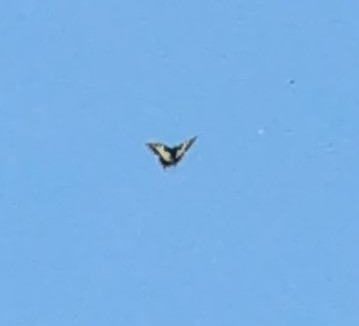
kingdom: Animalia
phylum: Arthropoda
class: Insecta
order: Lepidoptera
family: Papilionidae
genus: Papilio
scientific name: Papilio machaon
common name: Swallowtail
